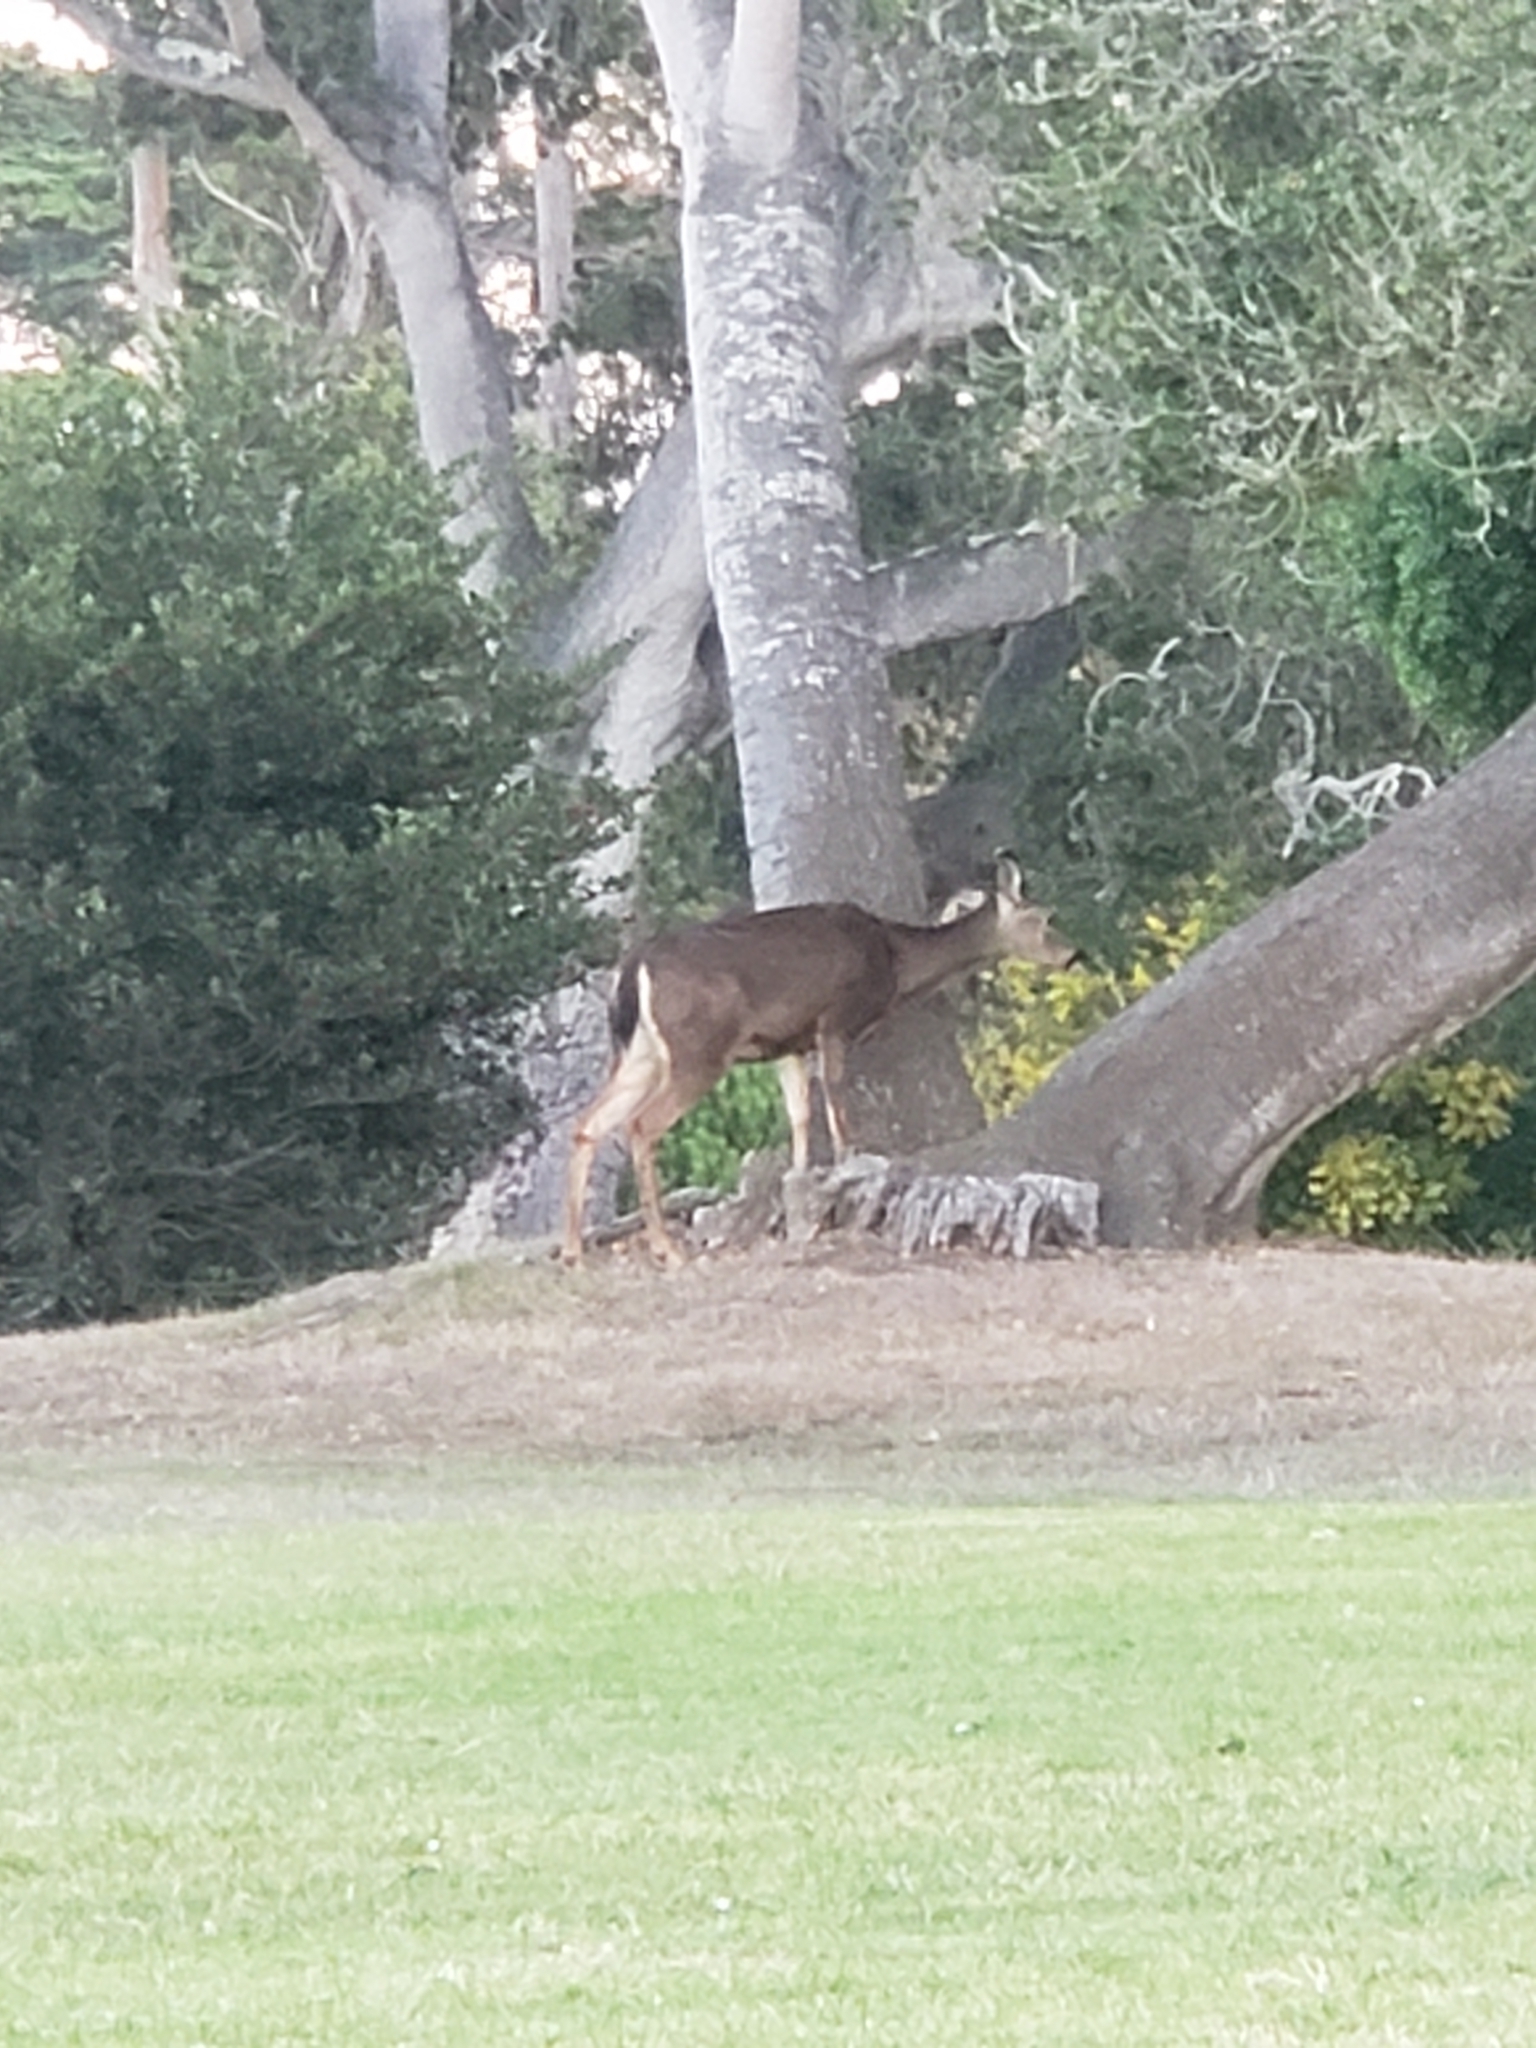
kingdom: Animalia
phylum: Chordata
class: Mammalia
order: Artiodactyla
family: Cervidae
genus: Odocoileus
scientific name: Odocoileus hemionus
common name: Mule deer
